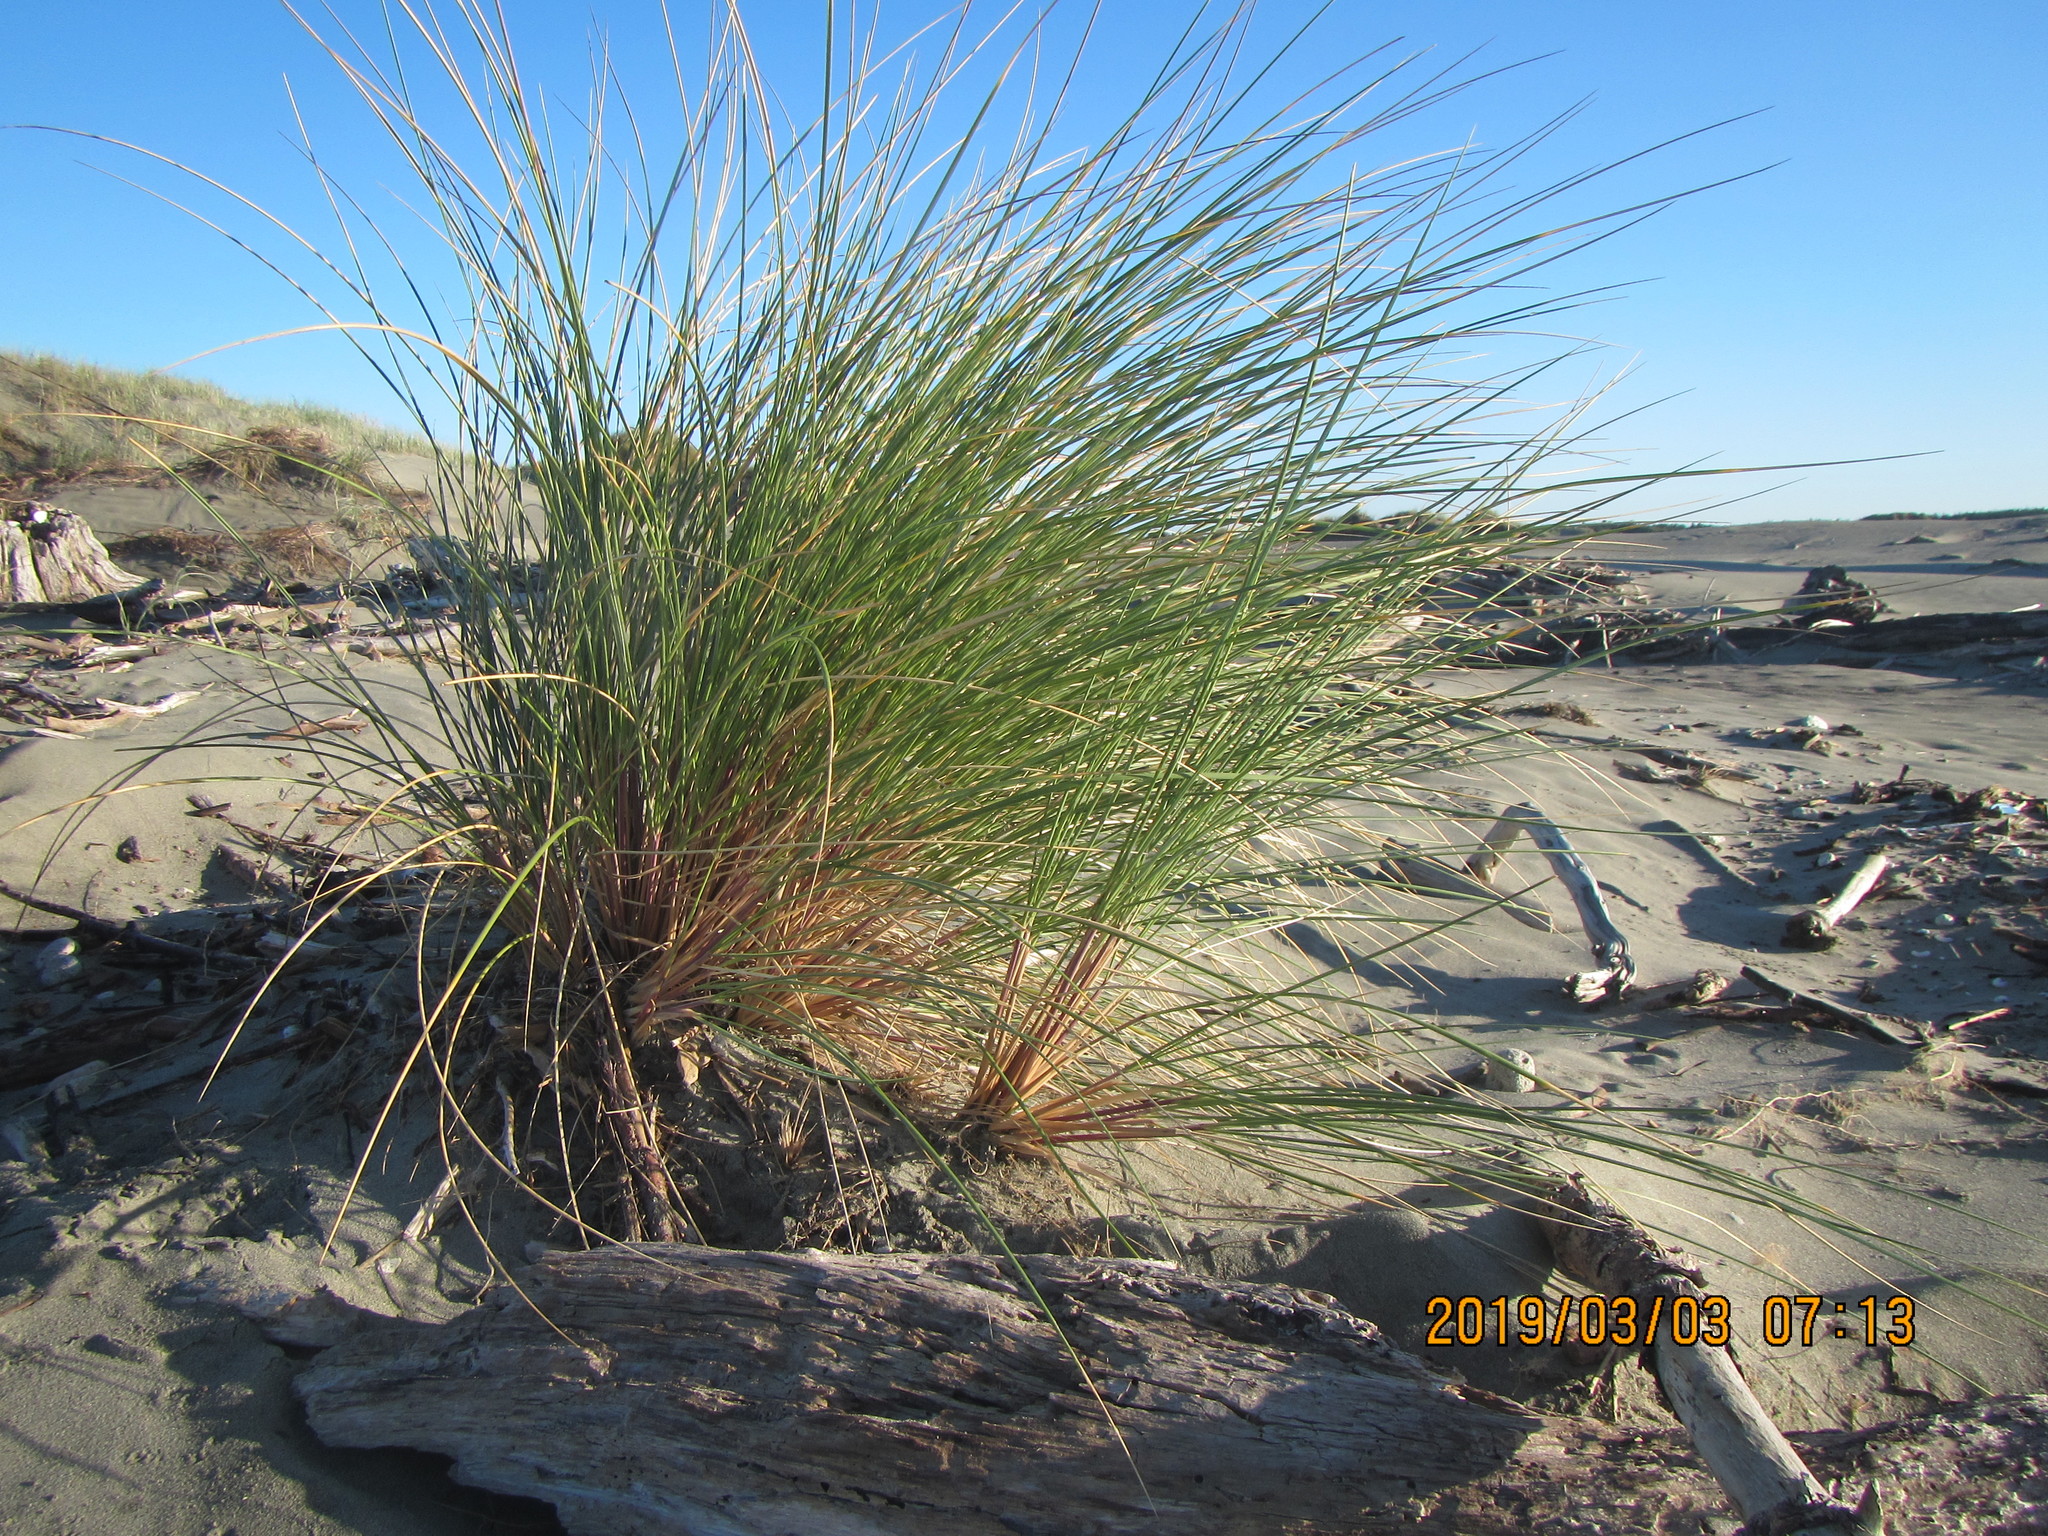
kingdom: Plantae
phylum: Tracheophyta
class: Liliopsida
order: Poales
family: Poaceae
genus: Calamagrostis
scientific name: Calamagrostis arenaria
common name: European beachgrass
